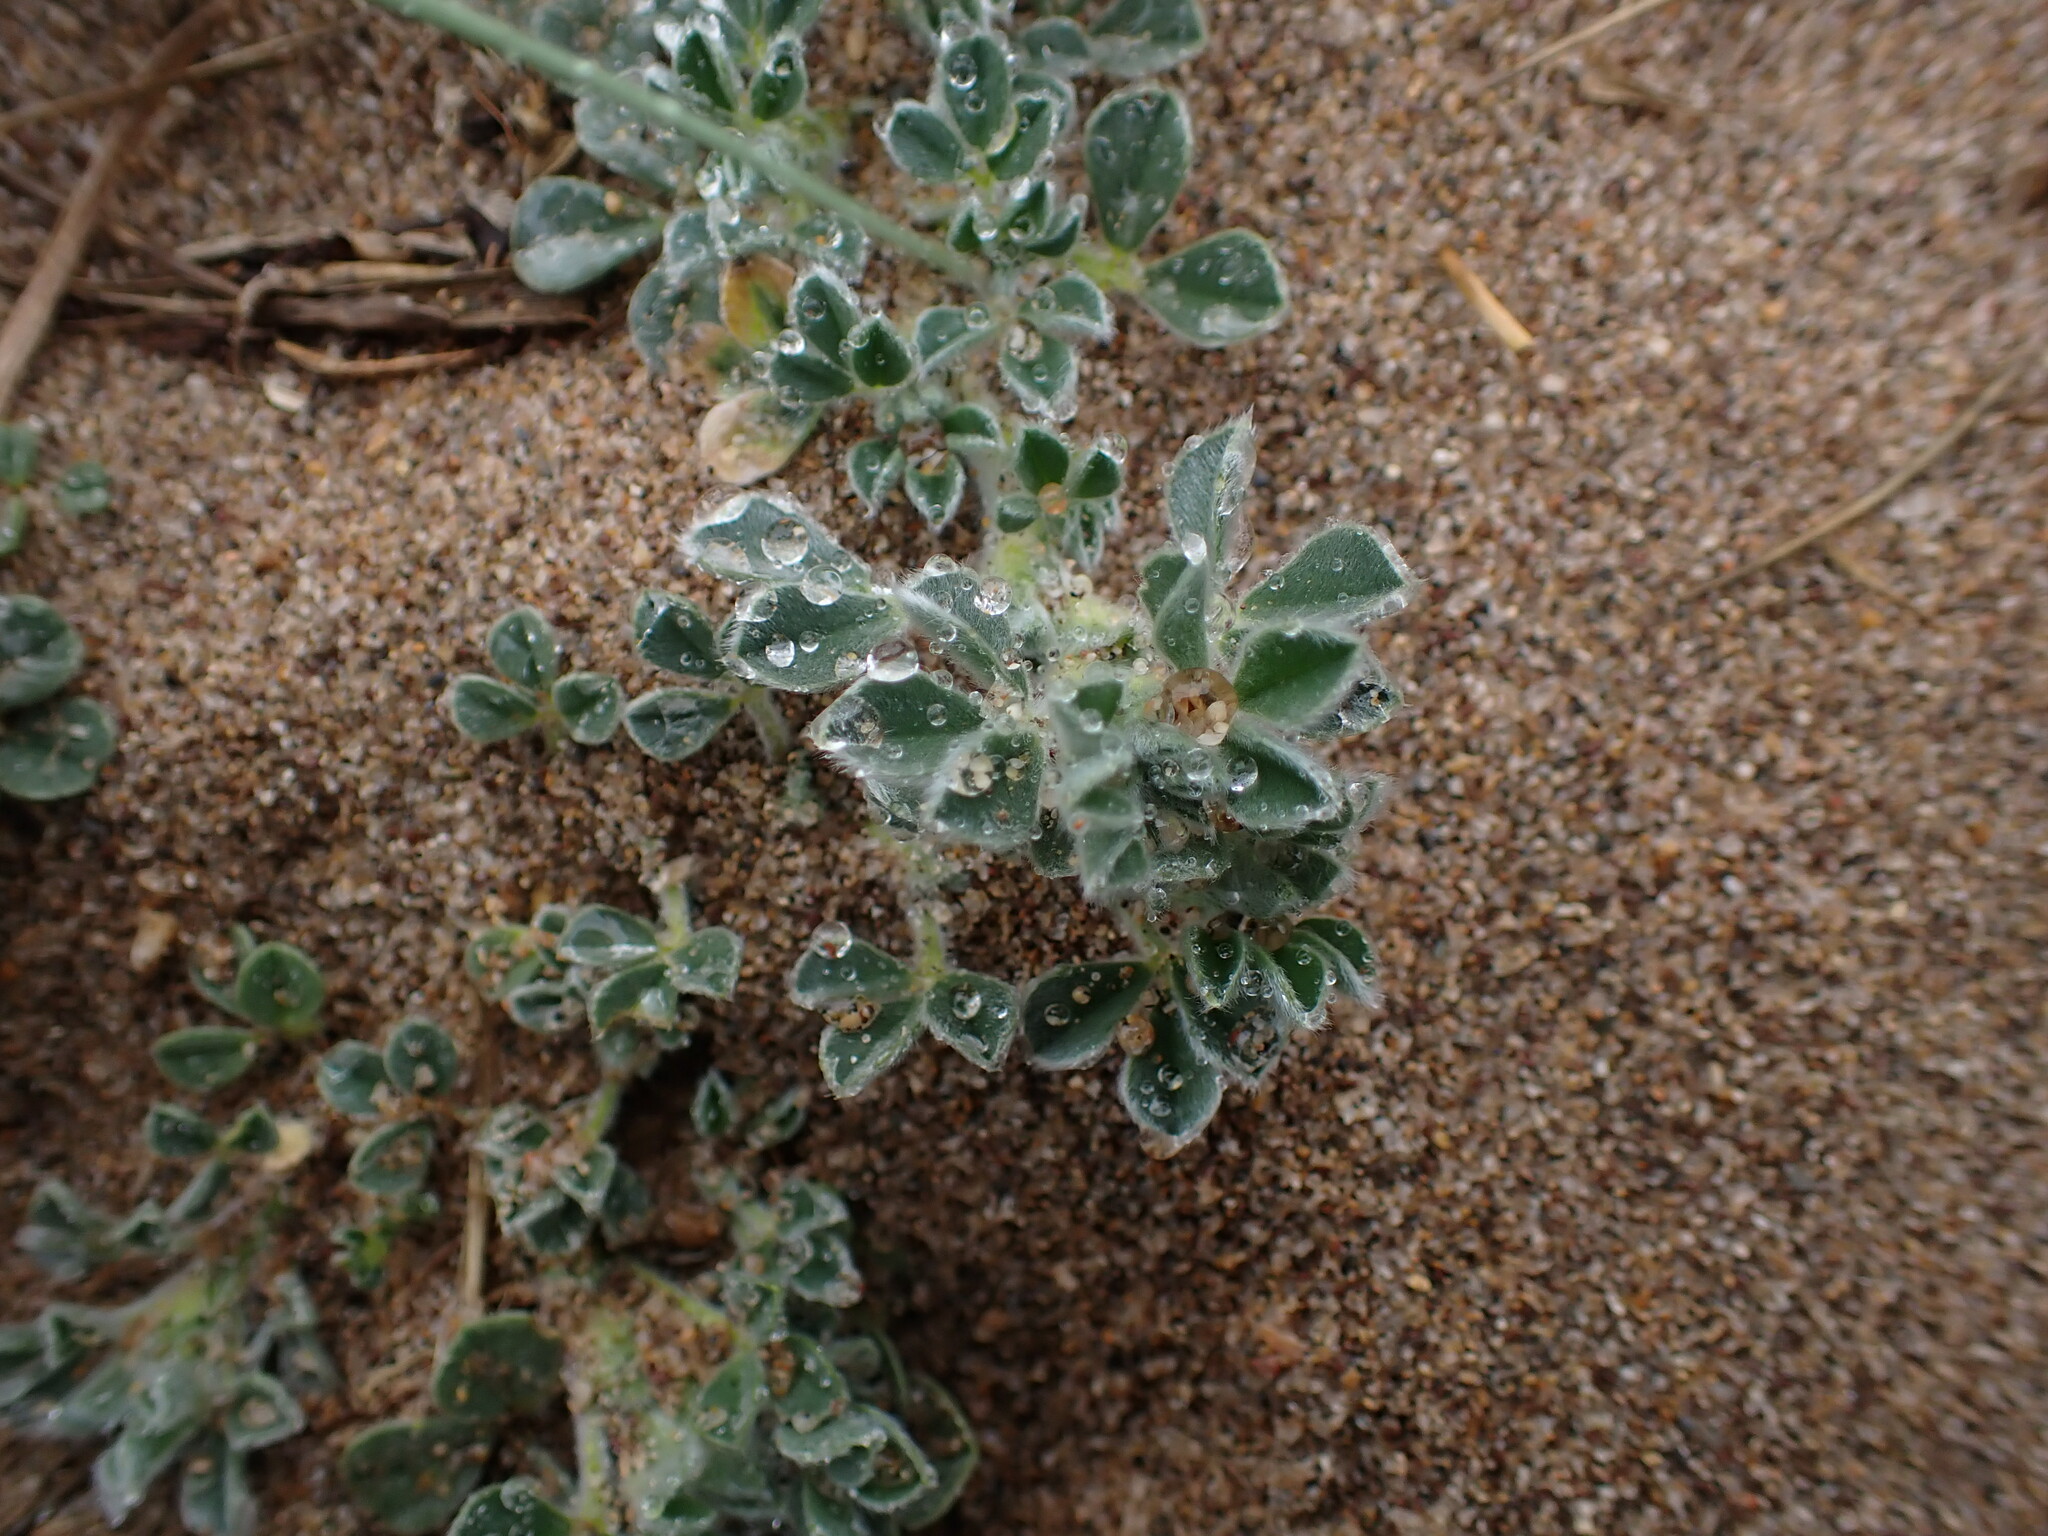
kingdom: Plantae
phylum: Tracheophyta
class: Magnoliopsida
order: Fabales
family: Fabaceae
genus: Medicago
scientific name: Medicago marina
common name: Sea medick
